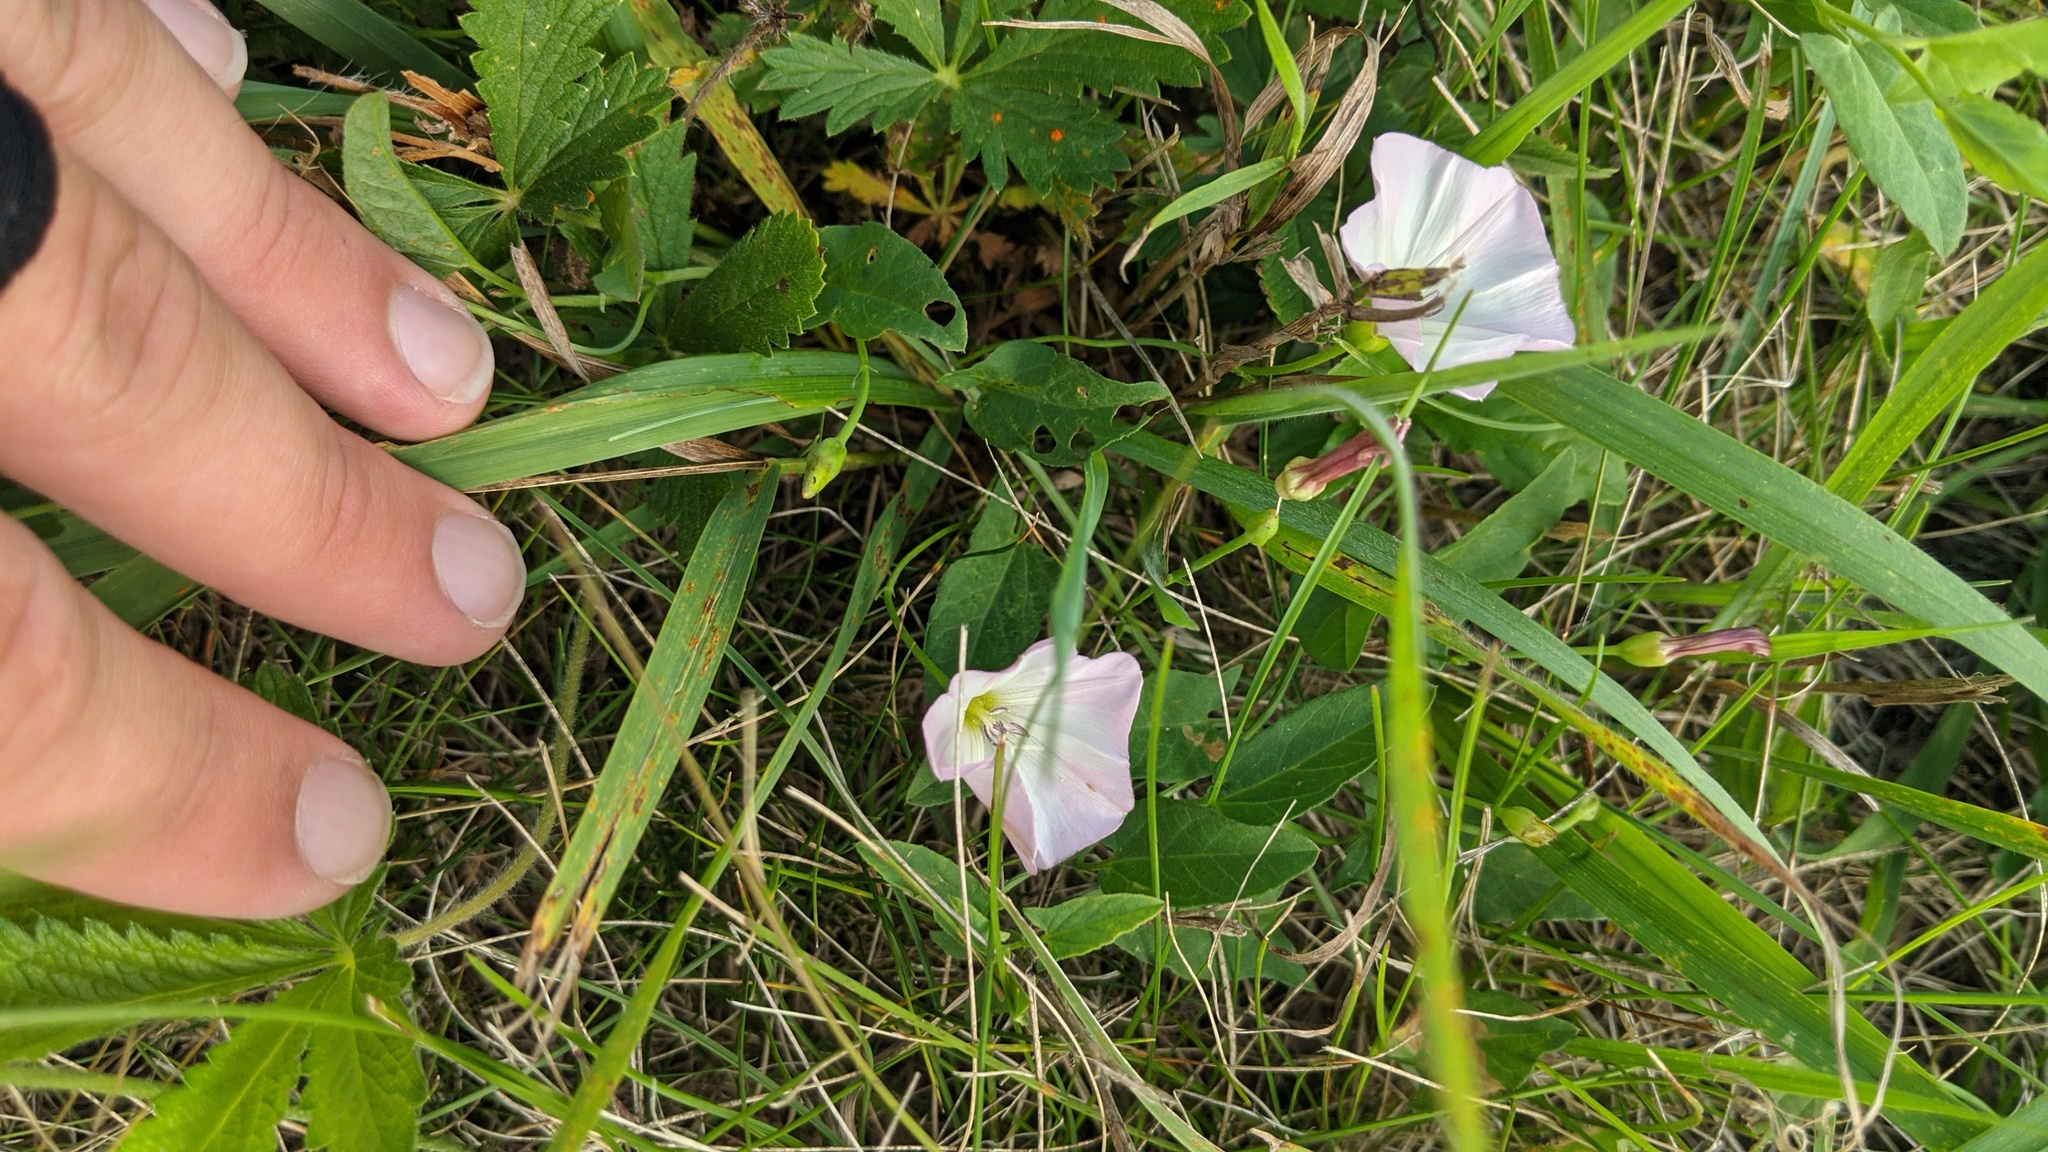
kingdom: Plantae
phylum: Tracheophyta
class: Magnoliopsida
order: Solanales
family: Convolvulaceae
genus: Convolvulus
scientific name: Convolvulus arvensis
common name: Field bindweed
